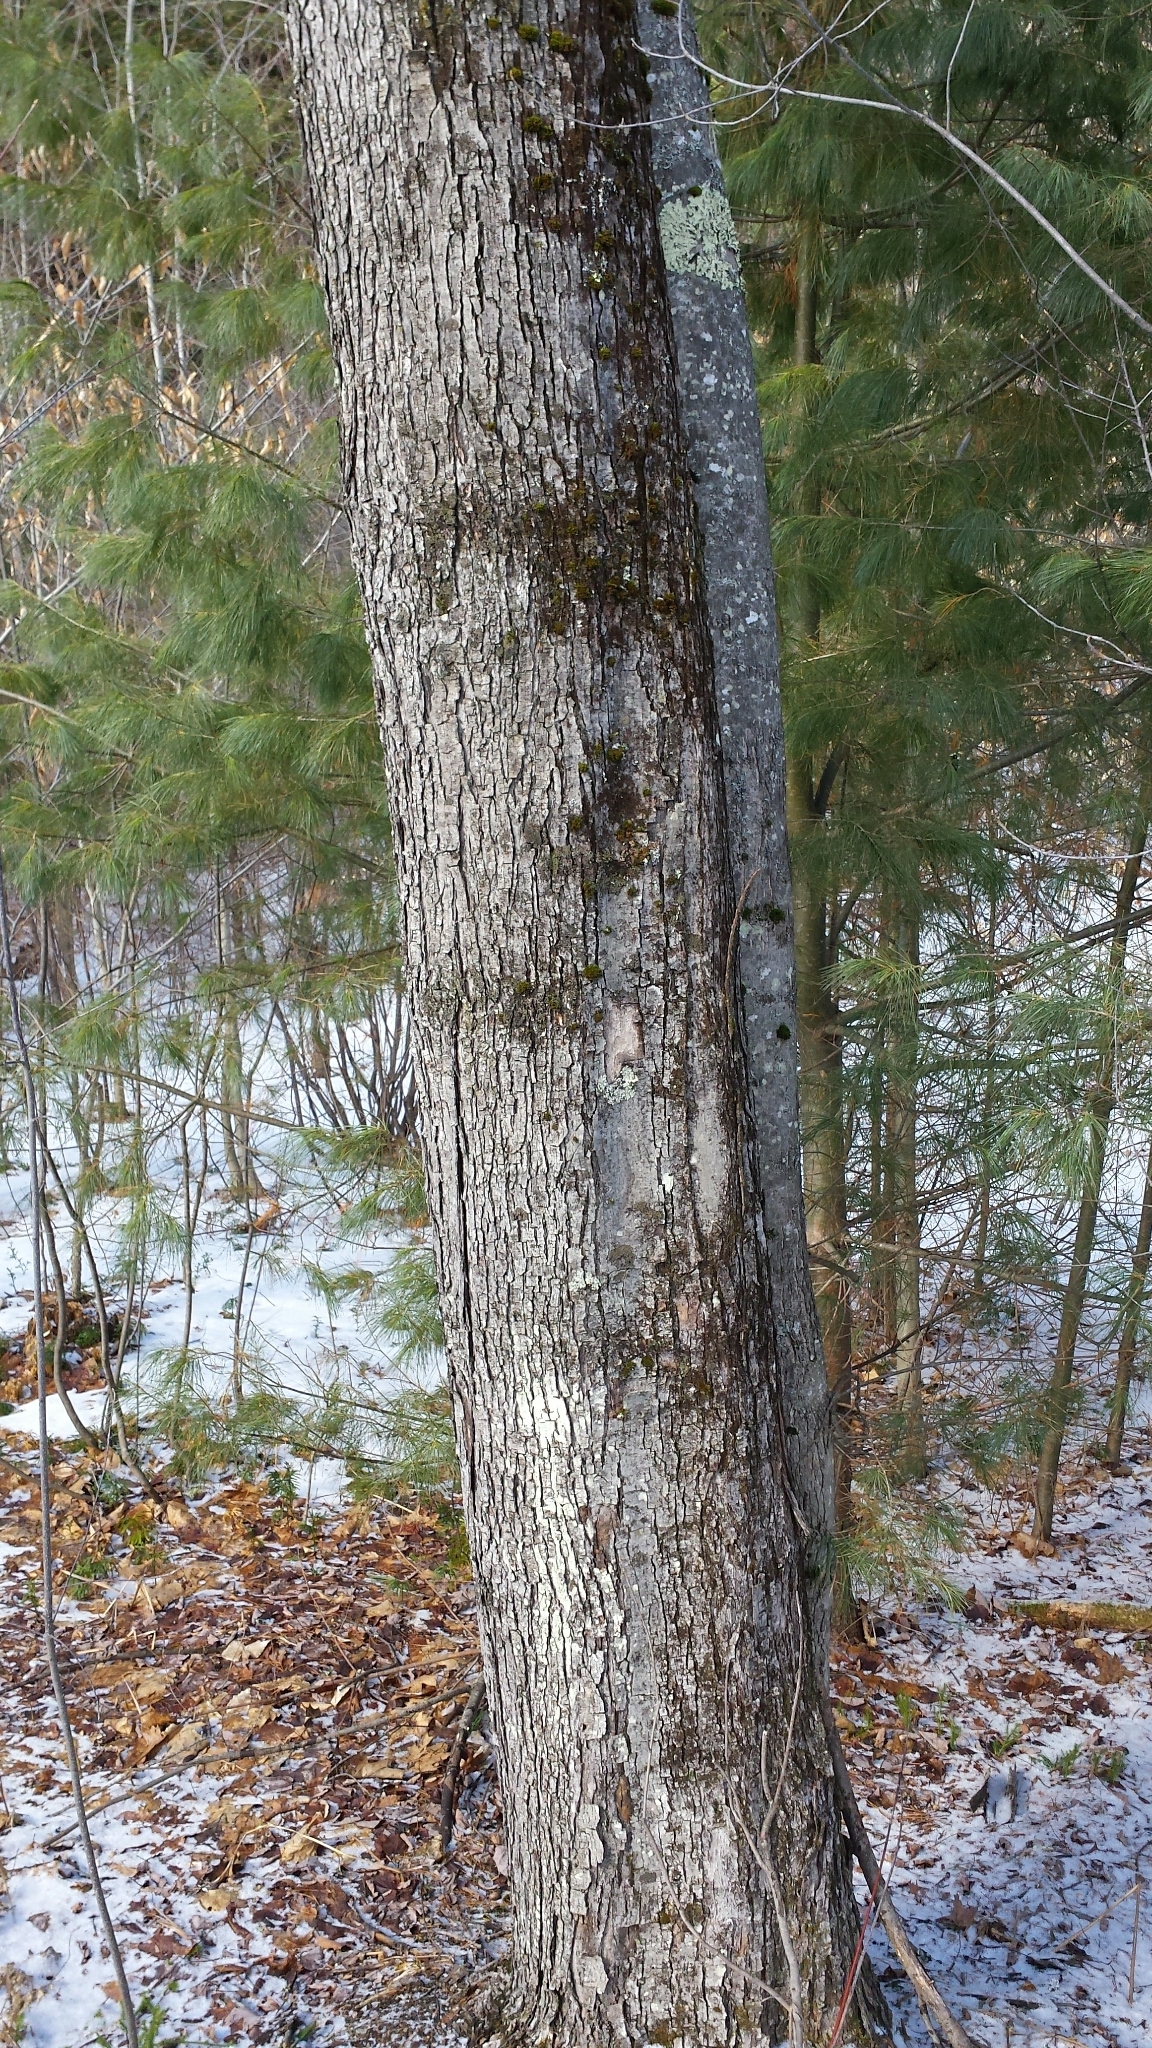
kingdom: Plantae
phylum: Tracheophyta
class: Magnoliopsida
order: Sapindales
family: Sapindaceae
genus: Acer
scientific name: Acer rubrum
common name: Red maple
